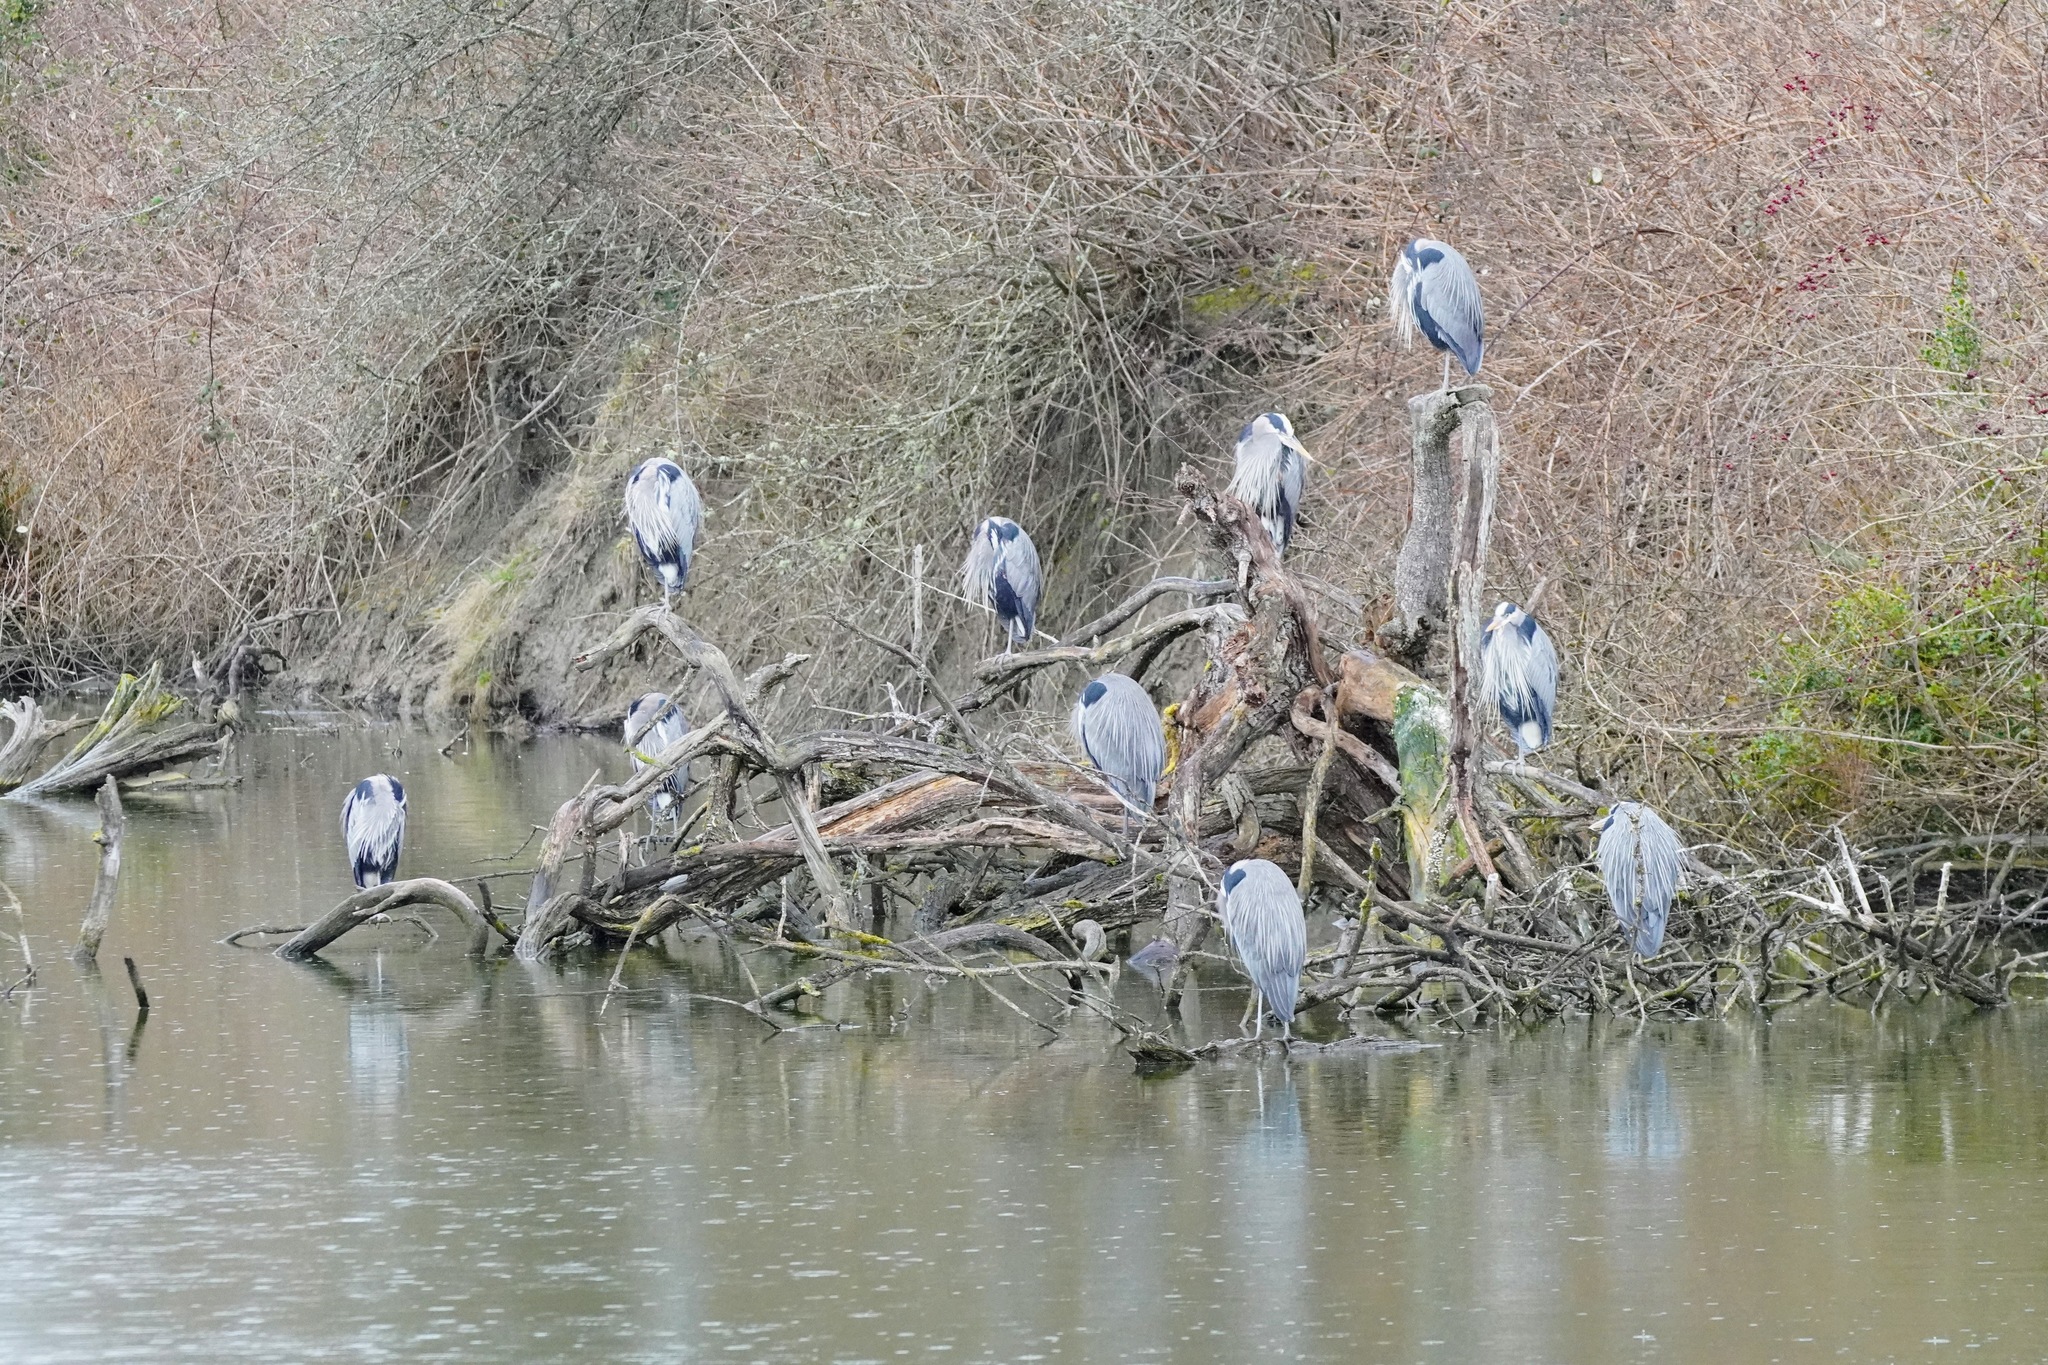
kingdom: Animalia
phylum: Chordata
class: Aves
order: Pelecaniformes
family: Ardeidae
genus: Ardea
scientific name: Ardea herodias
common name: Great blue heron
